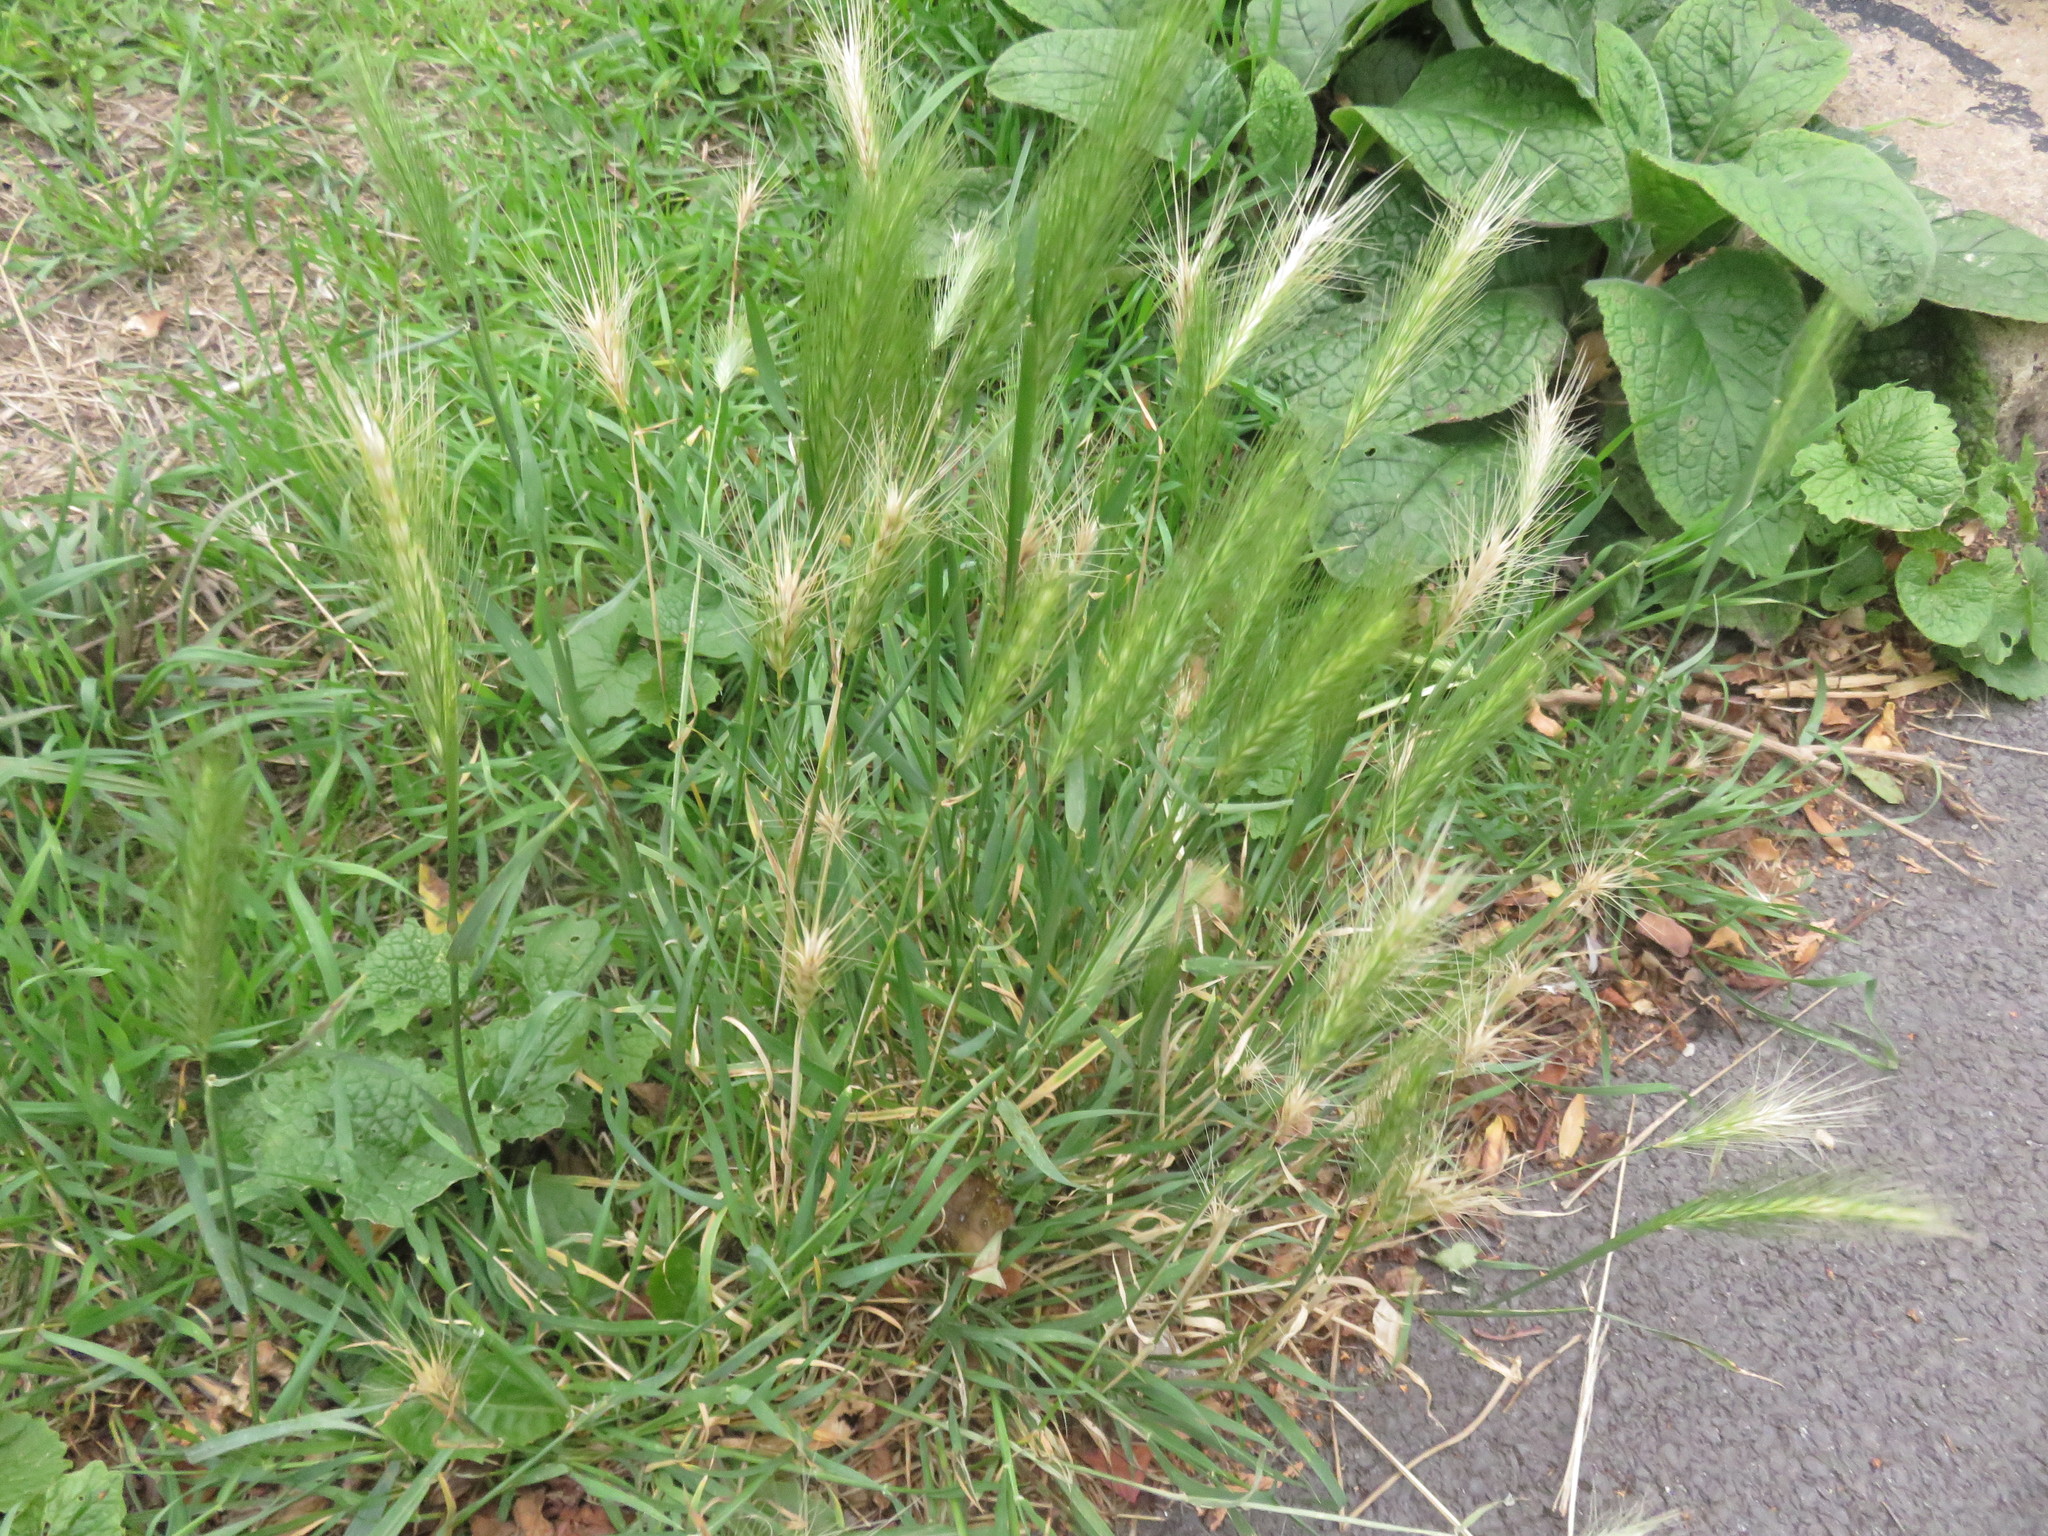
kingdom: Plantae
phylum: Tracheophyta
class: Liliopsida
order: Poales
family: Poaceae
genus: Hordeum
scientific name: Hordeum murinum
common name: Wall barley
